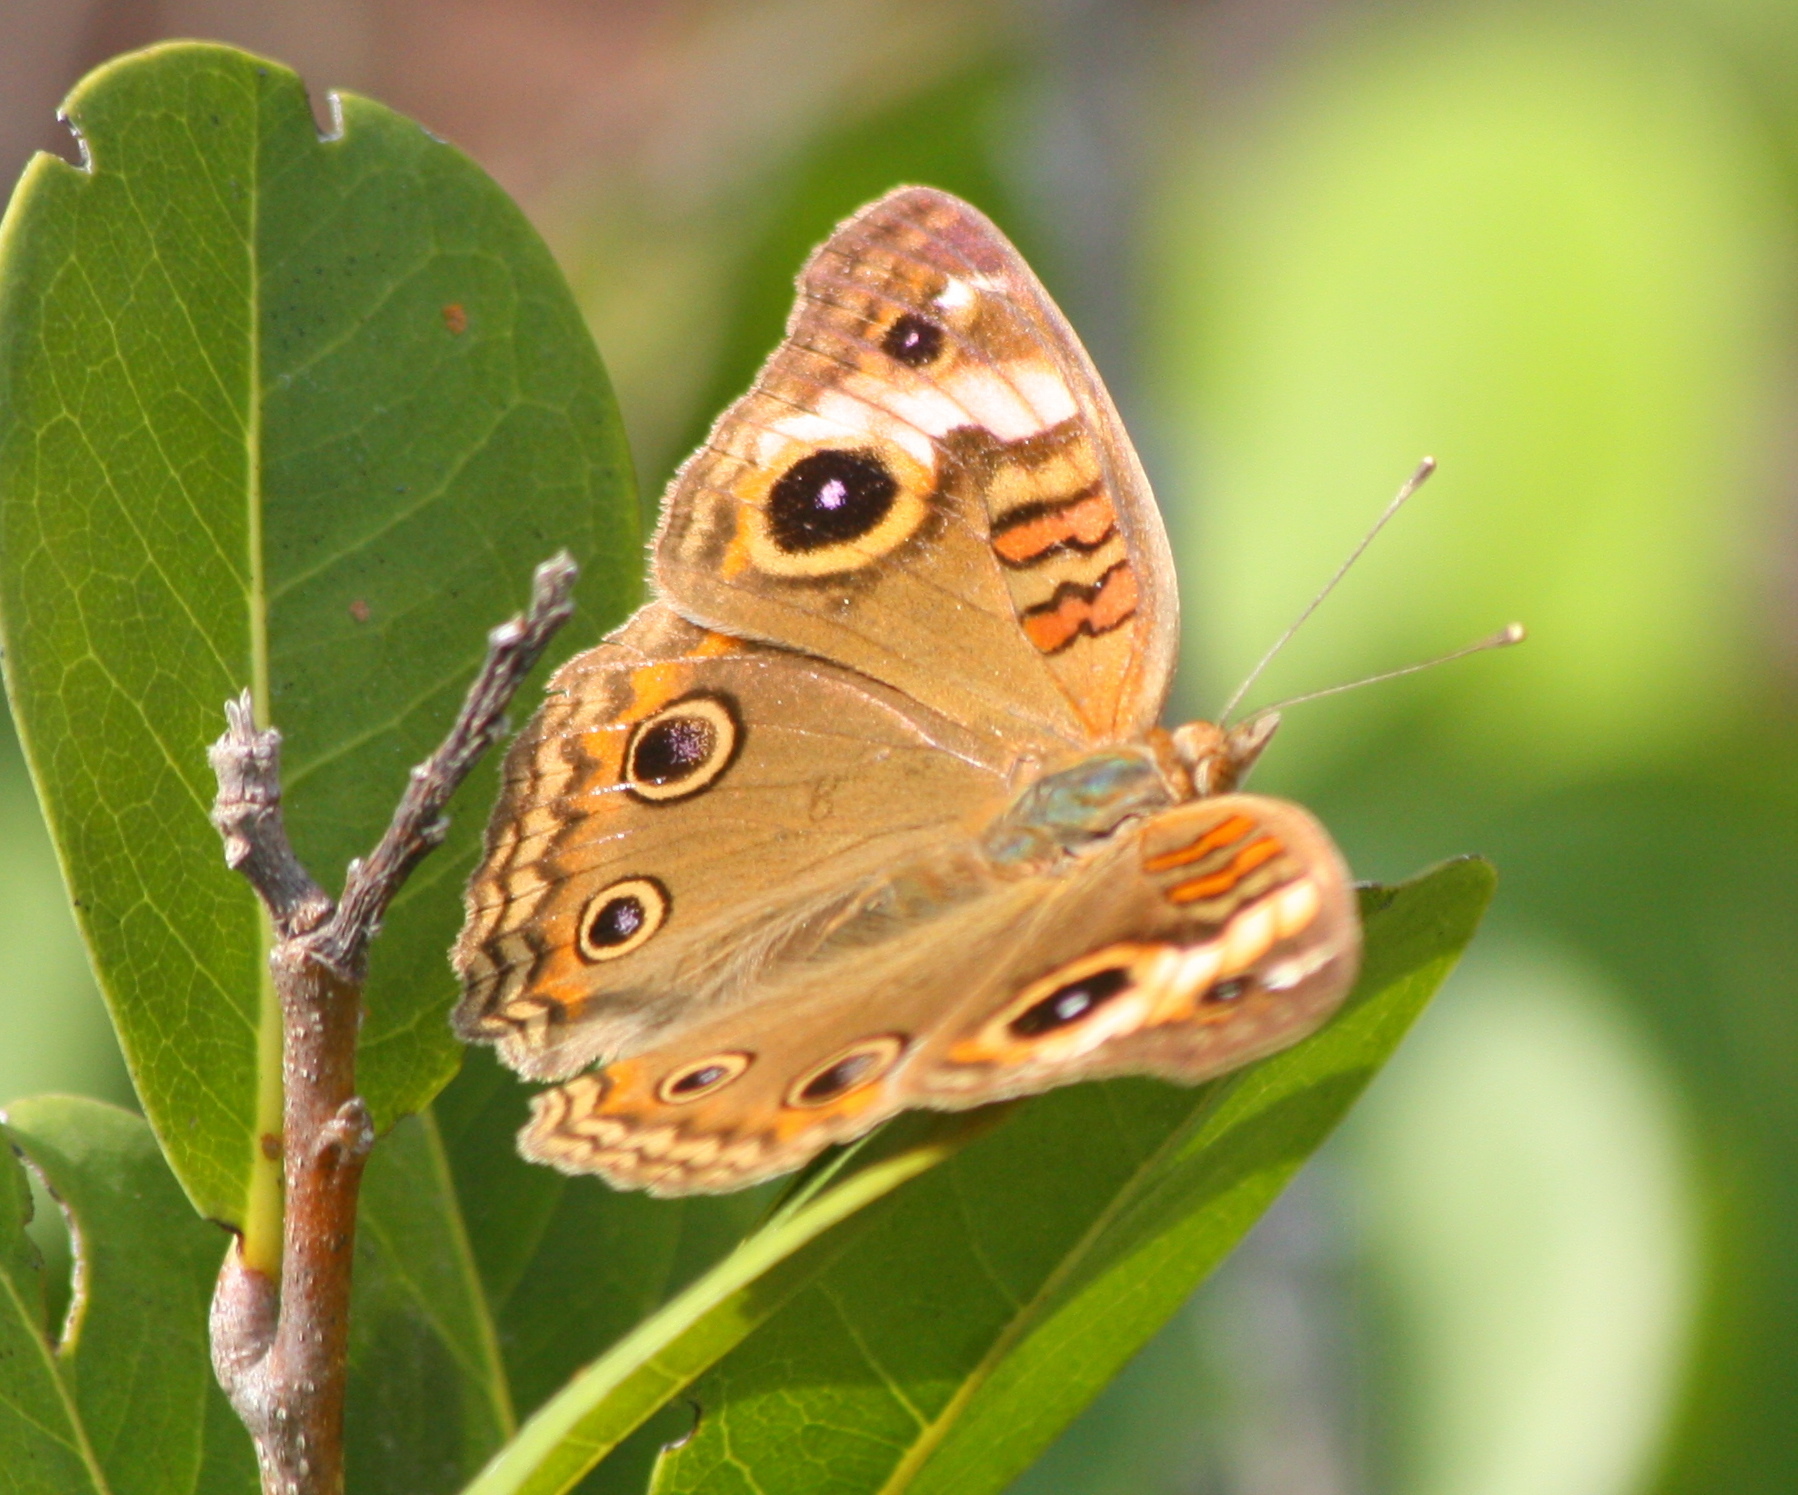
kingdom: Animalia
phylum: Arthropoda
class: Insecta
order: Lepidoptera
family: Nymphalidae
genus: Junonia
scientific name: Junonia lavinia
